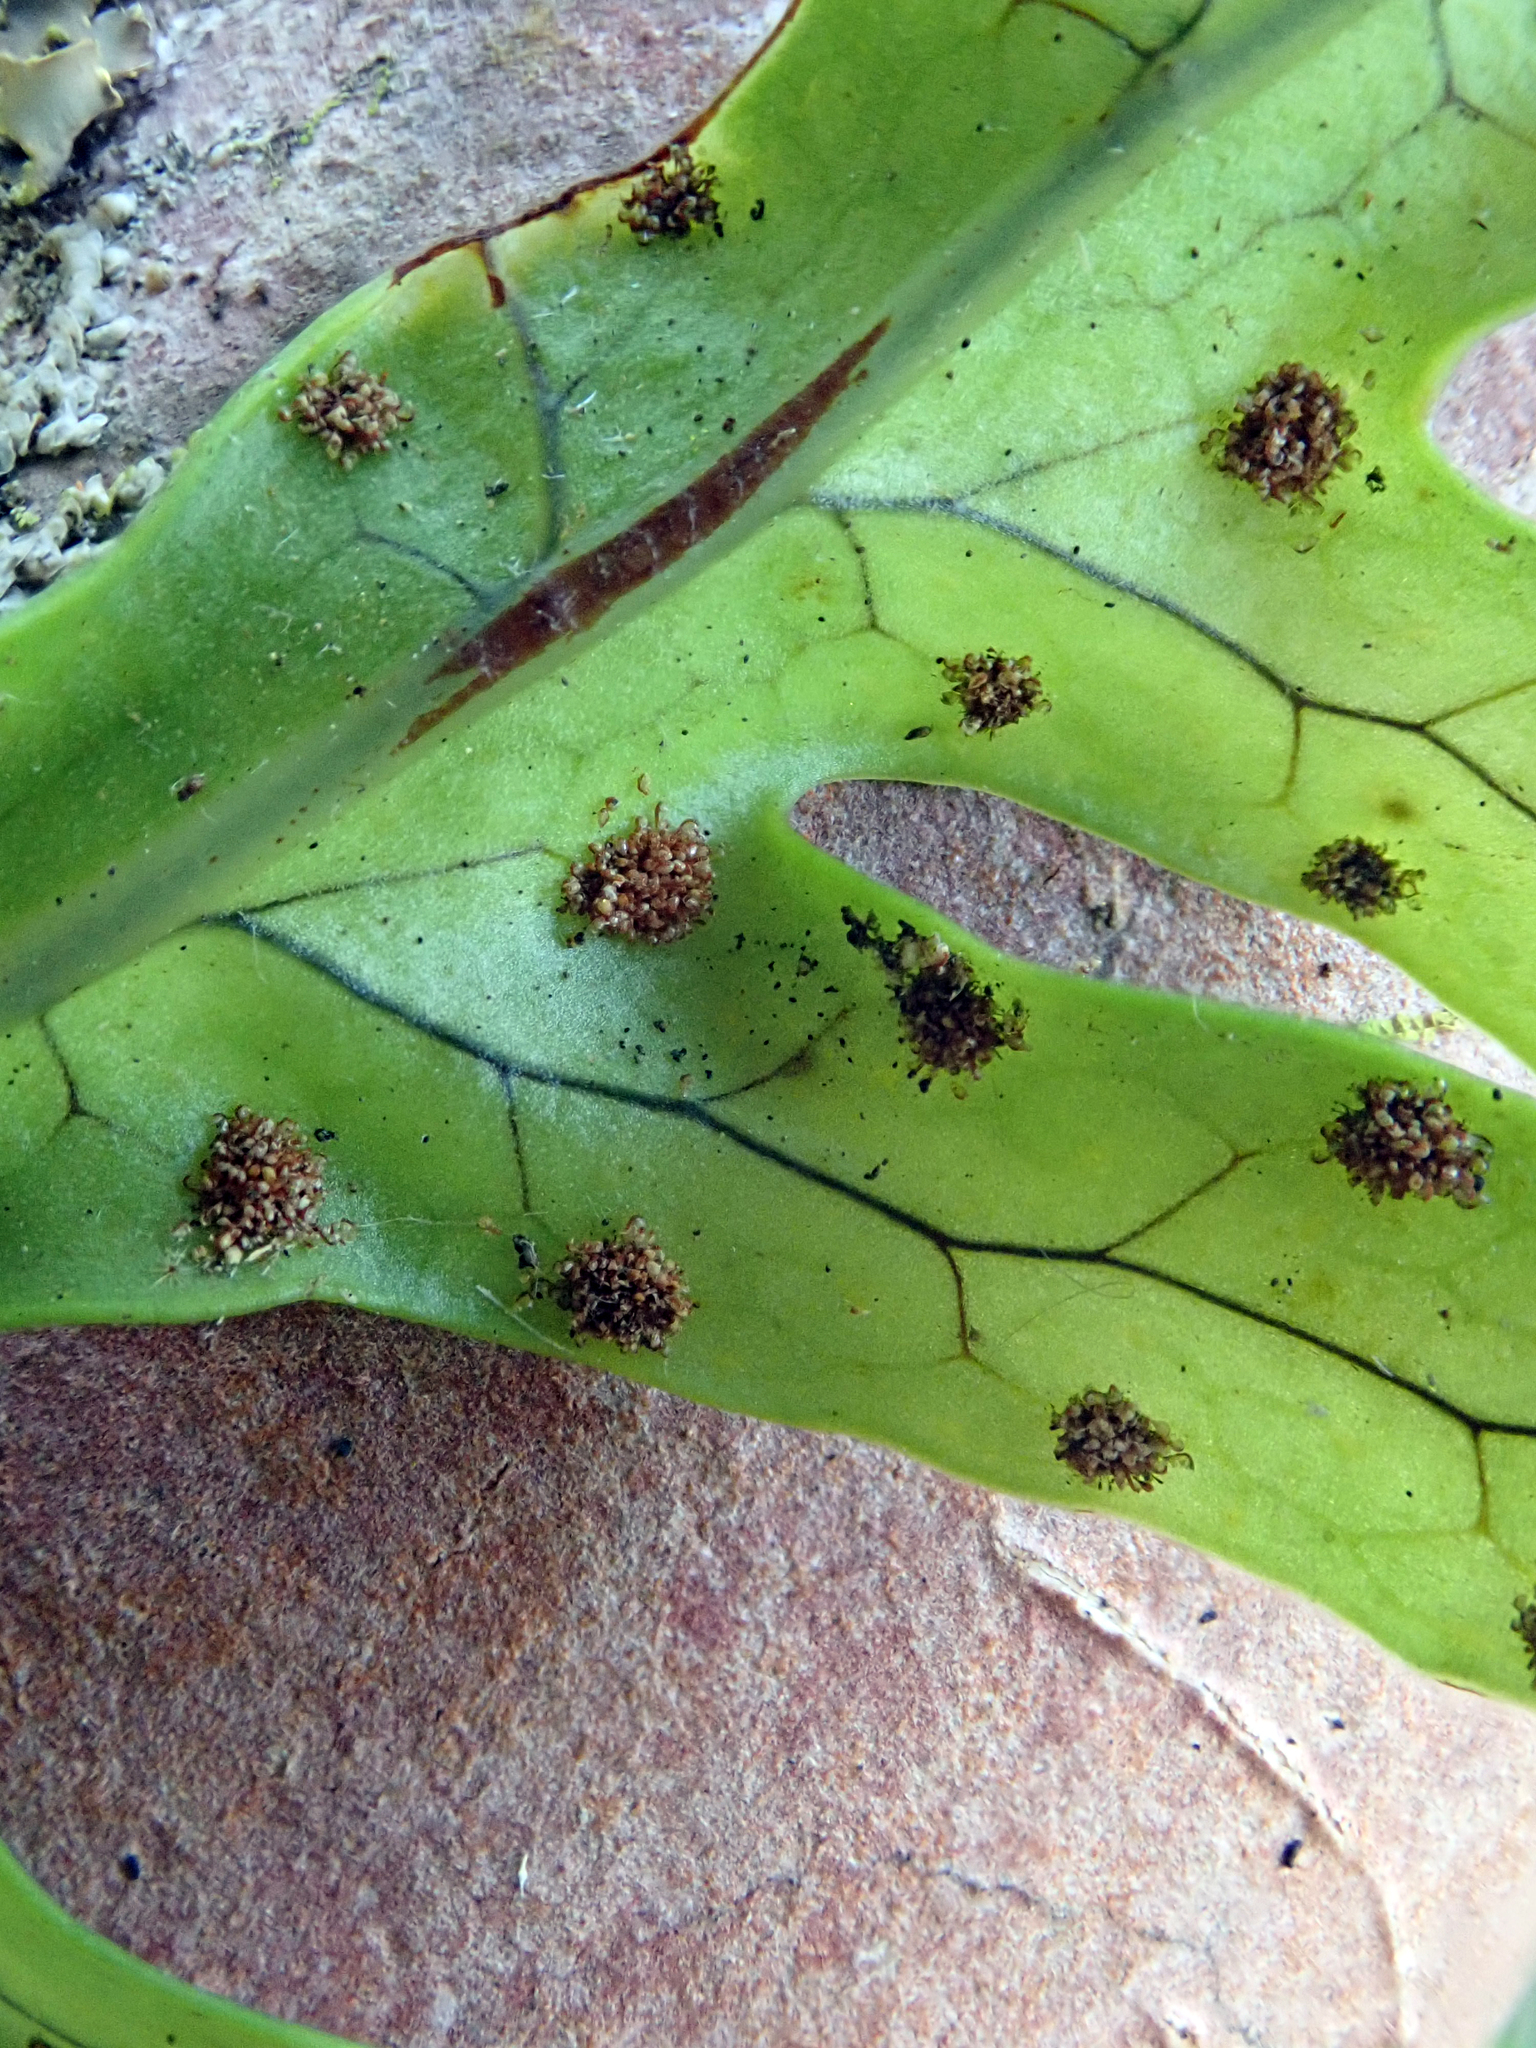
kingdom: Plantae
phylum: Tracheophyta
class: Polypodiopsida
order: Polypodiales
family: Polypodiaceae
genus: Lecanopteris
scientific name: Lecanopteris scandens
